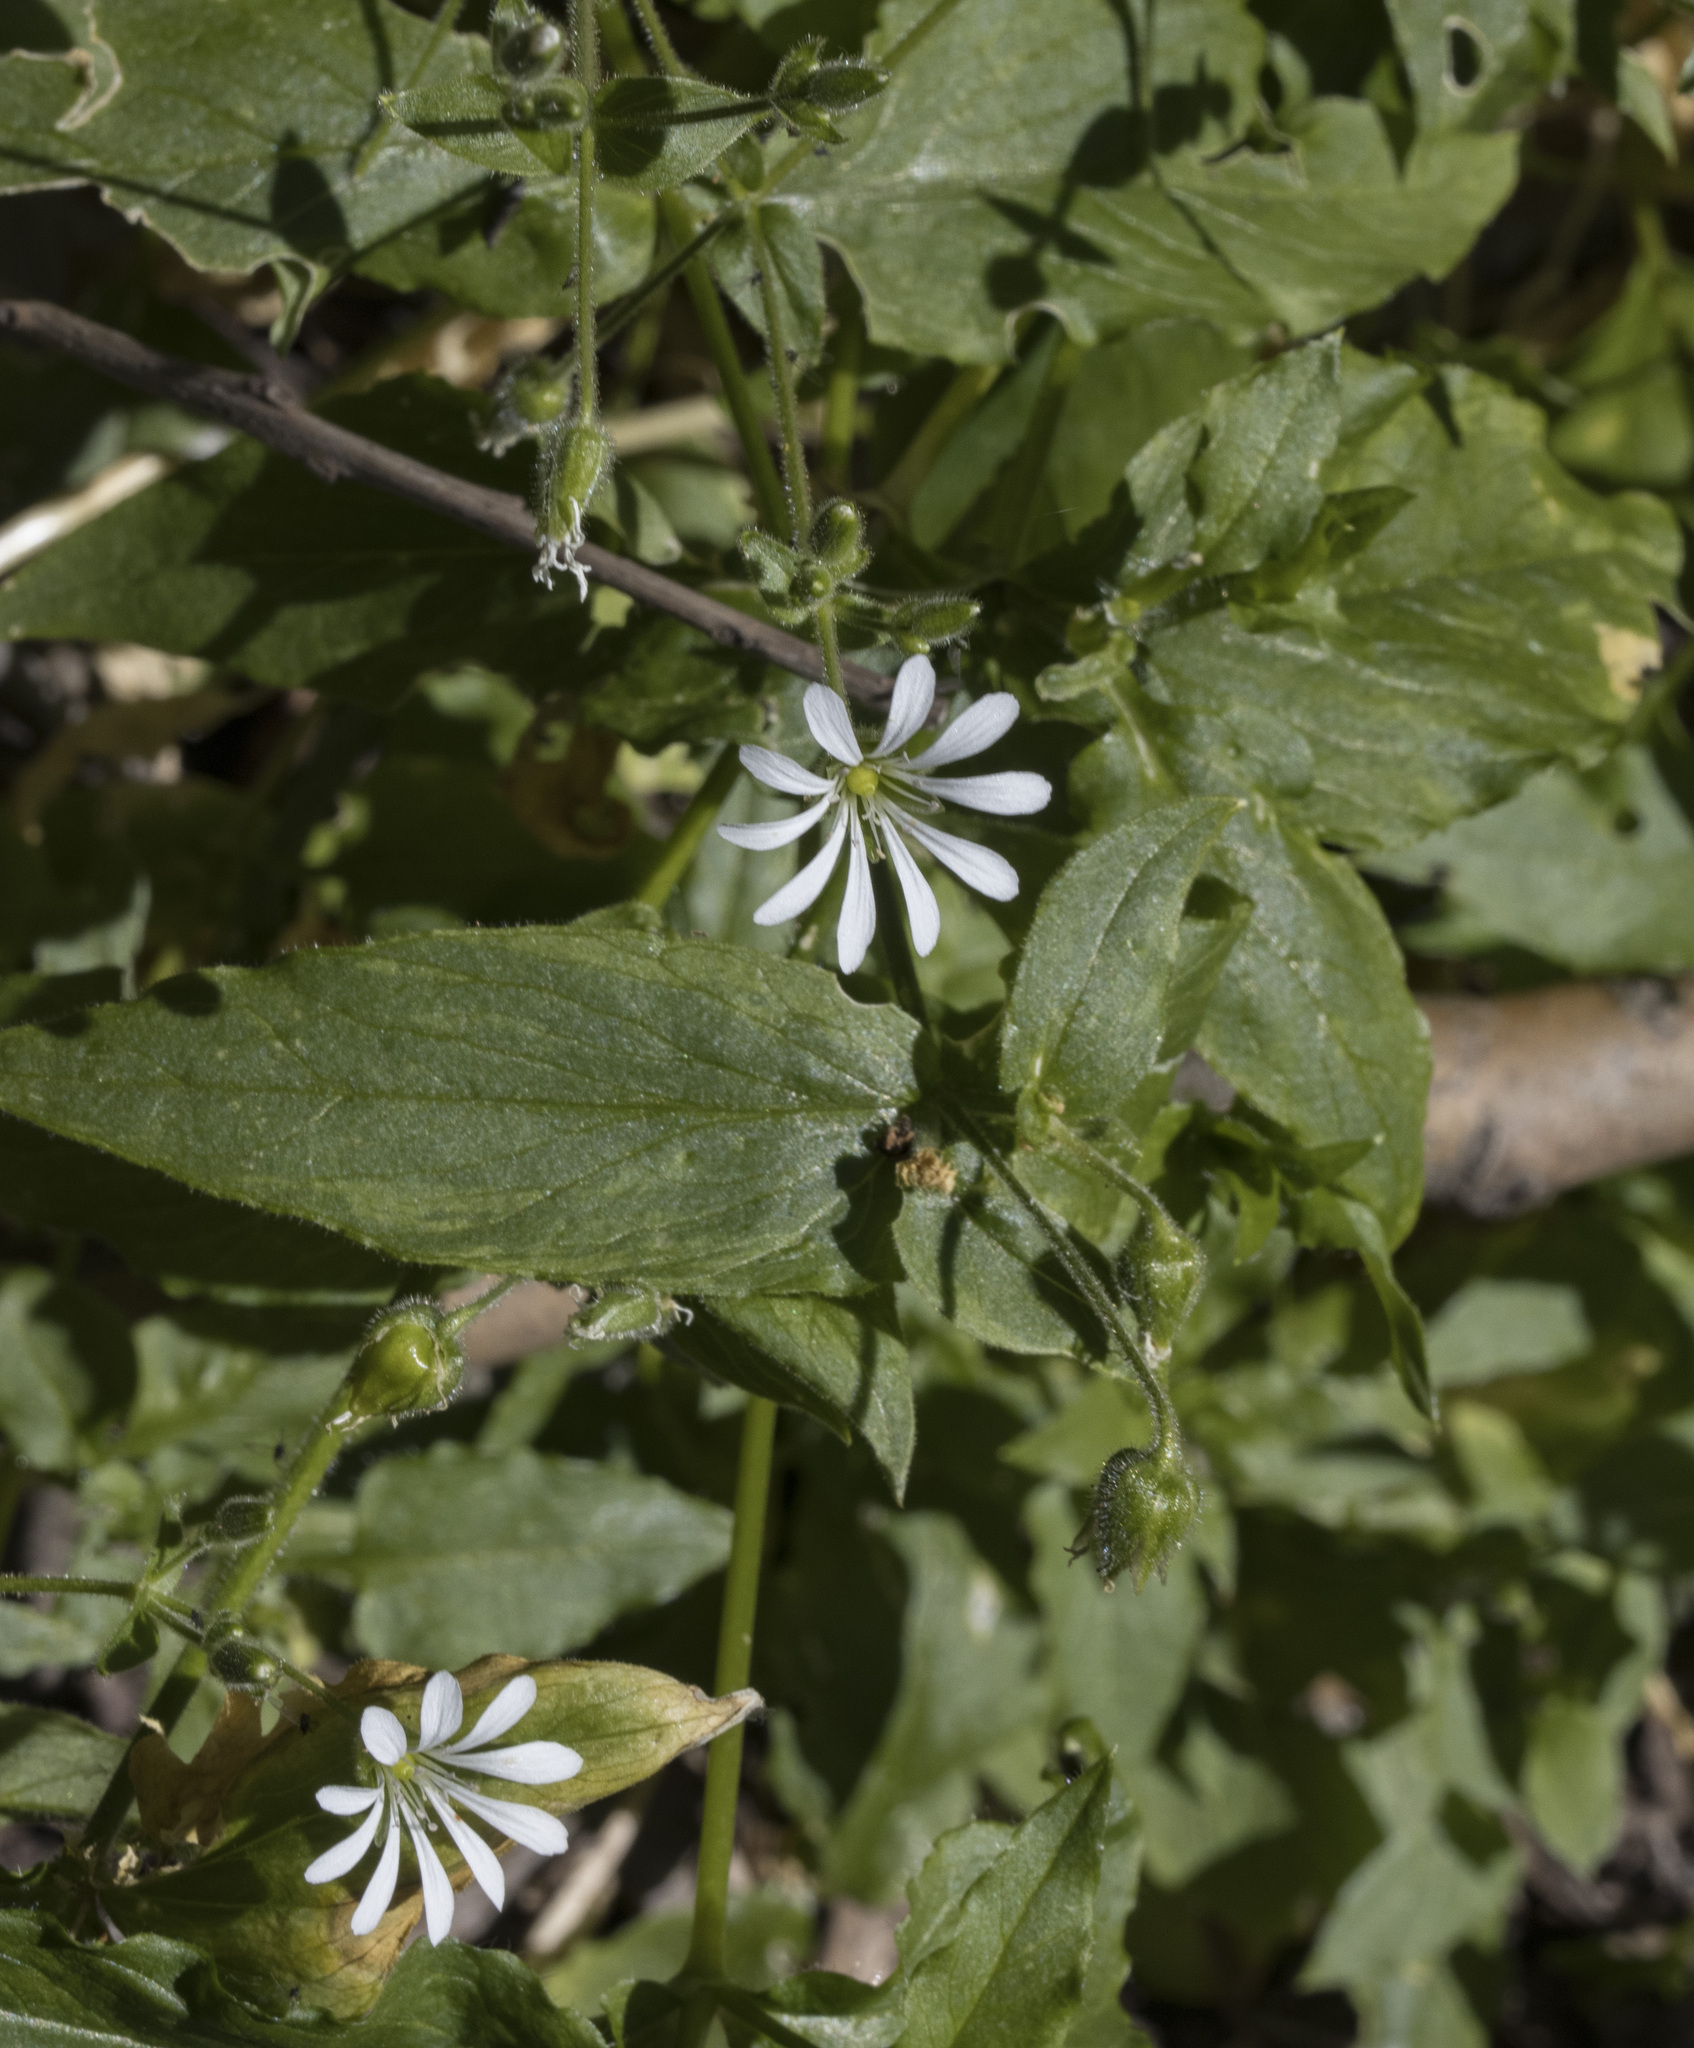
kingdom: Plantae
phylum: Tracheophyta
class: Magnoliopsida
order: Caryophyllales
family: Caryophyllaceae
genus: Stellaria
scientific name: Stellaria chilensis
